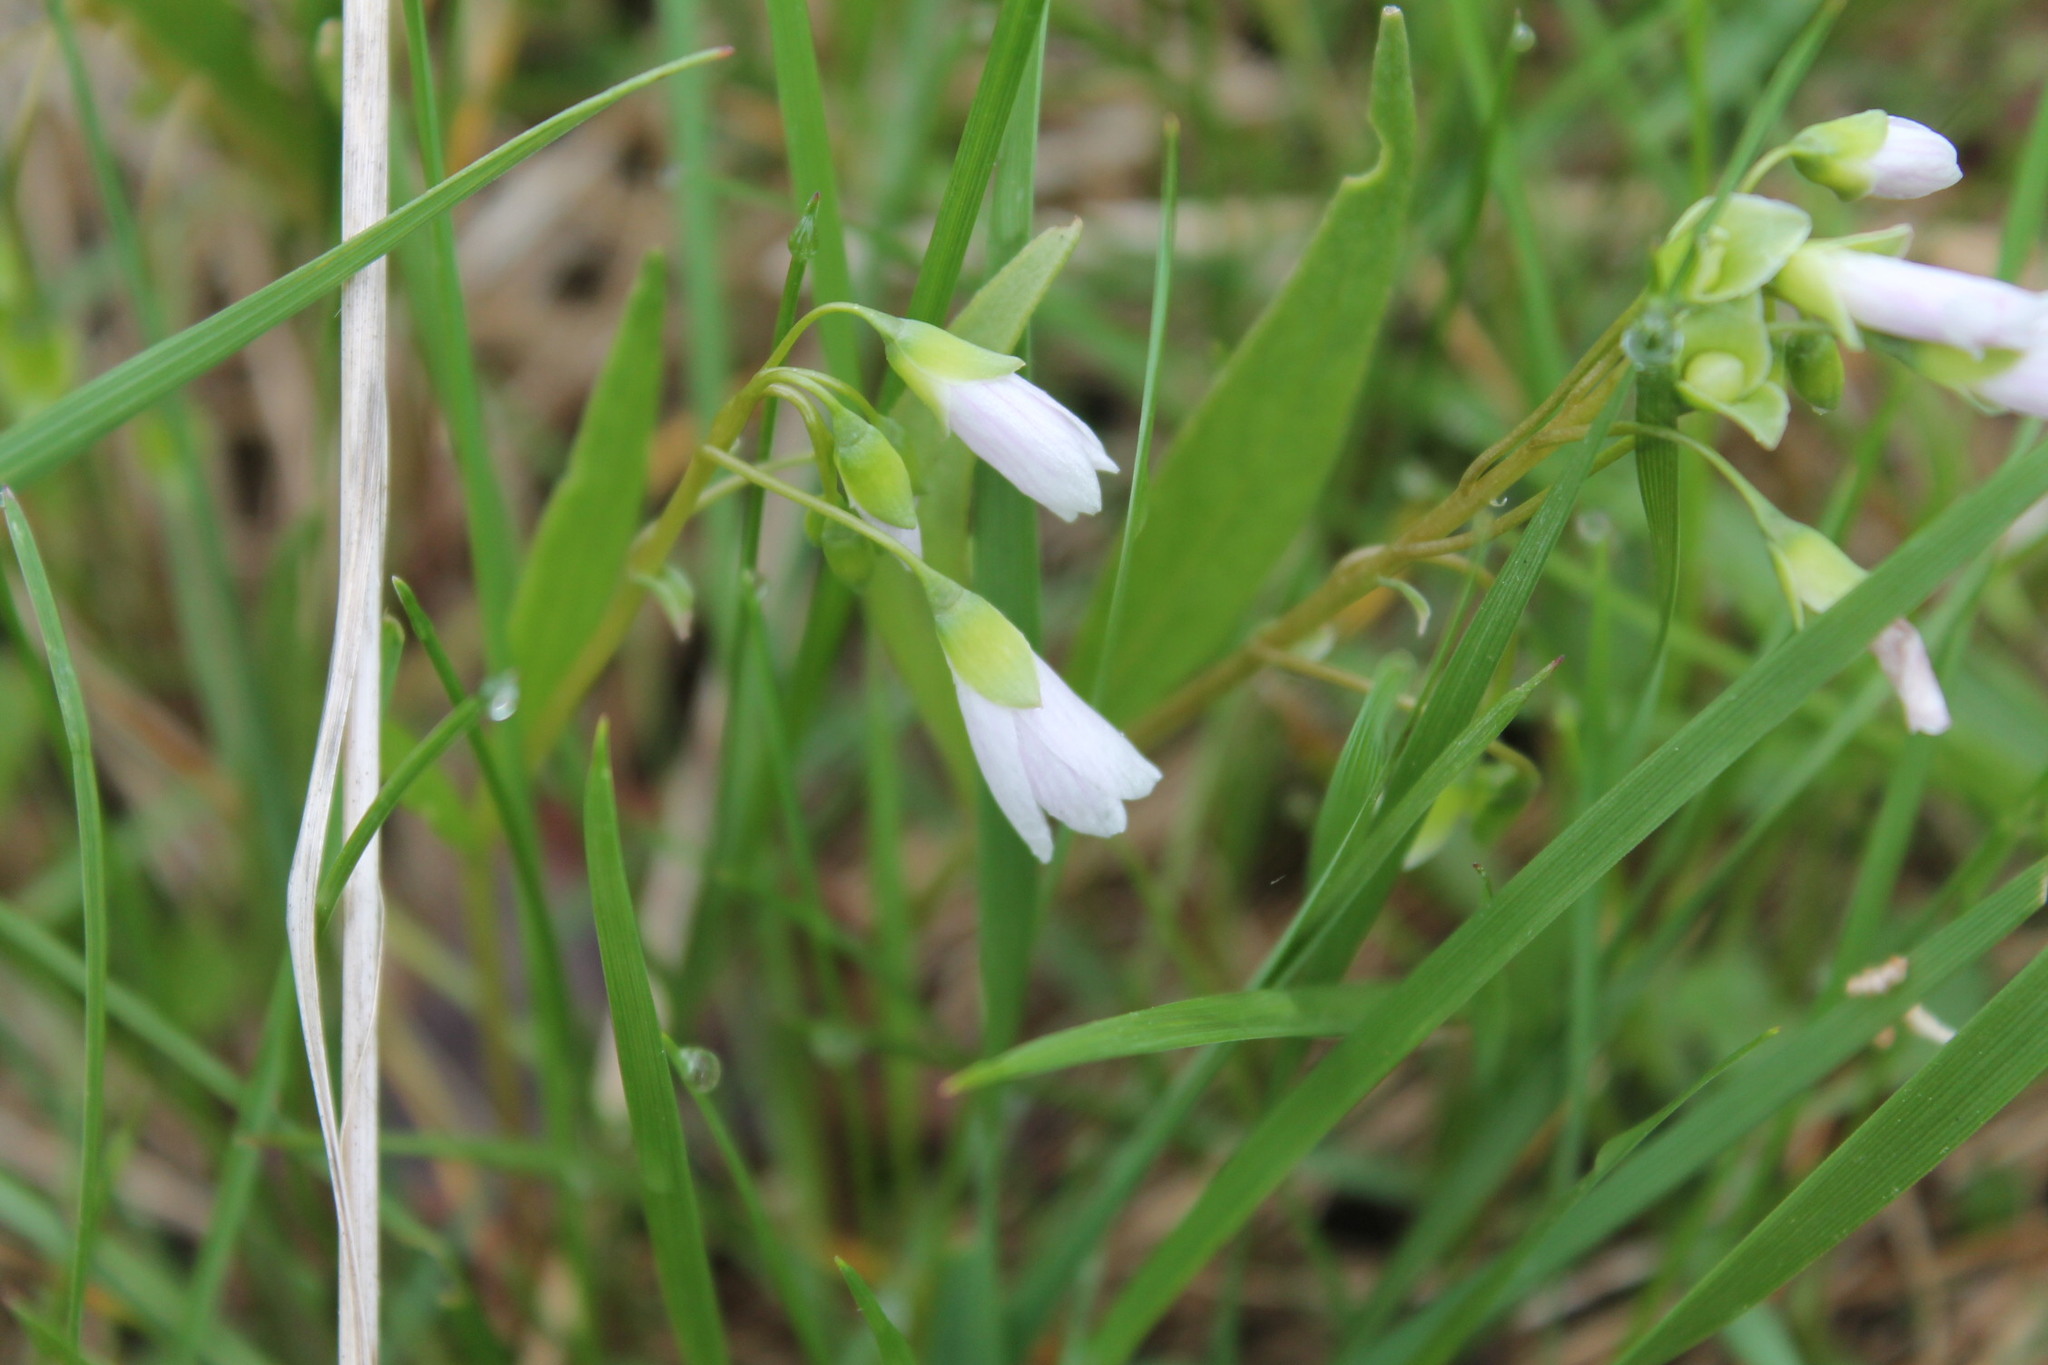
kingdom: Plantae
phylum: Tracheophyta
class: Magnoliopsida
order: Caryophyllales
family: Montiaceae
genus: Claytonia
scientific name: Claytonia virginica
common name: Virginia springbeauty
